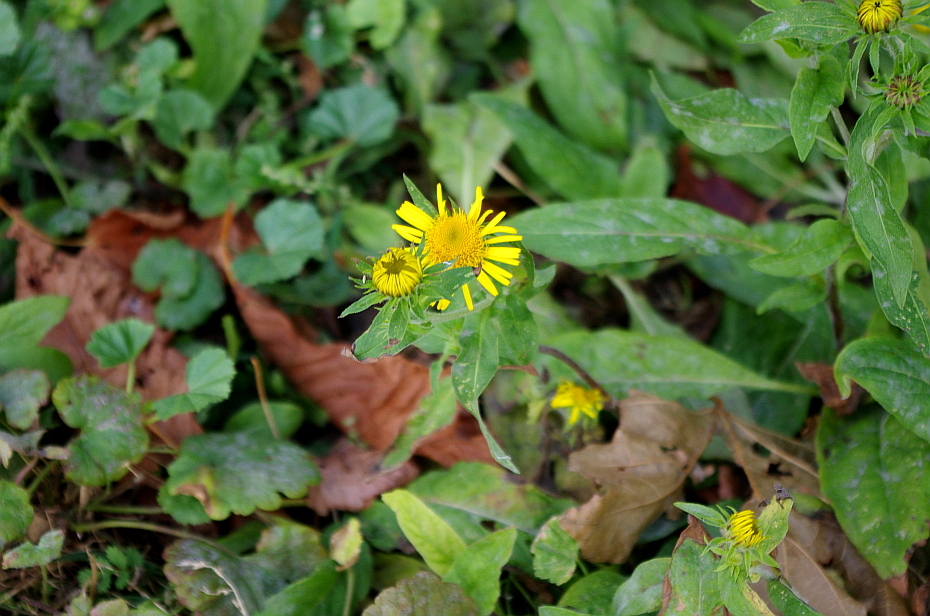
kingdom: Plantae
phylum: Tracheophyta
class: Magnoliopsida
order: Asterales
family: Asteraceae
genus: Pentanema
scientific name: Pentanema britannicum
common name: British elecampane
